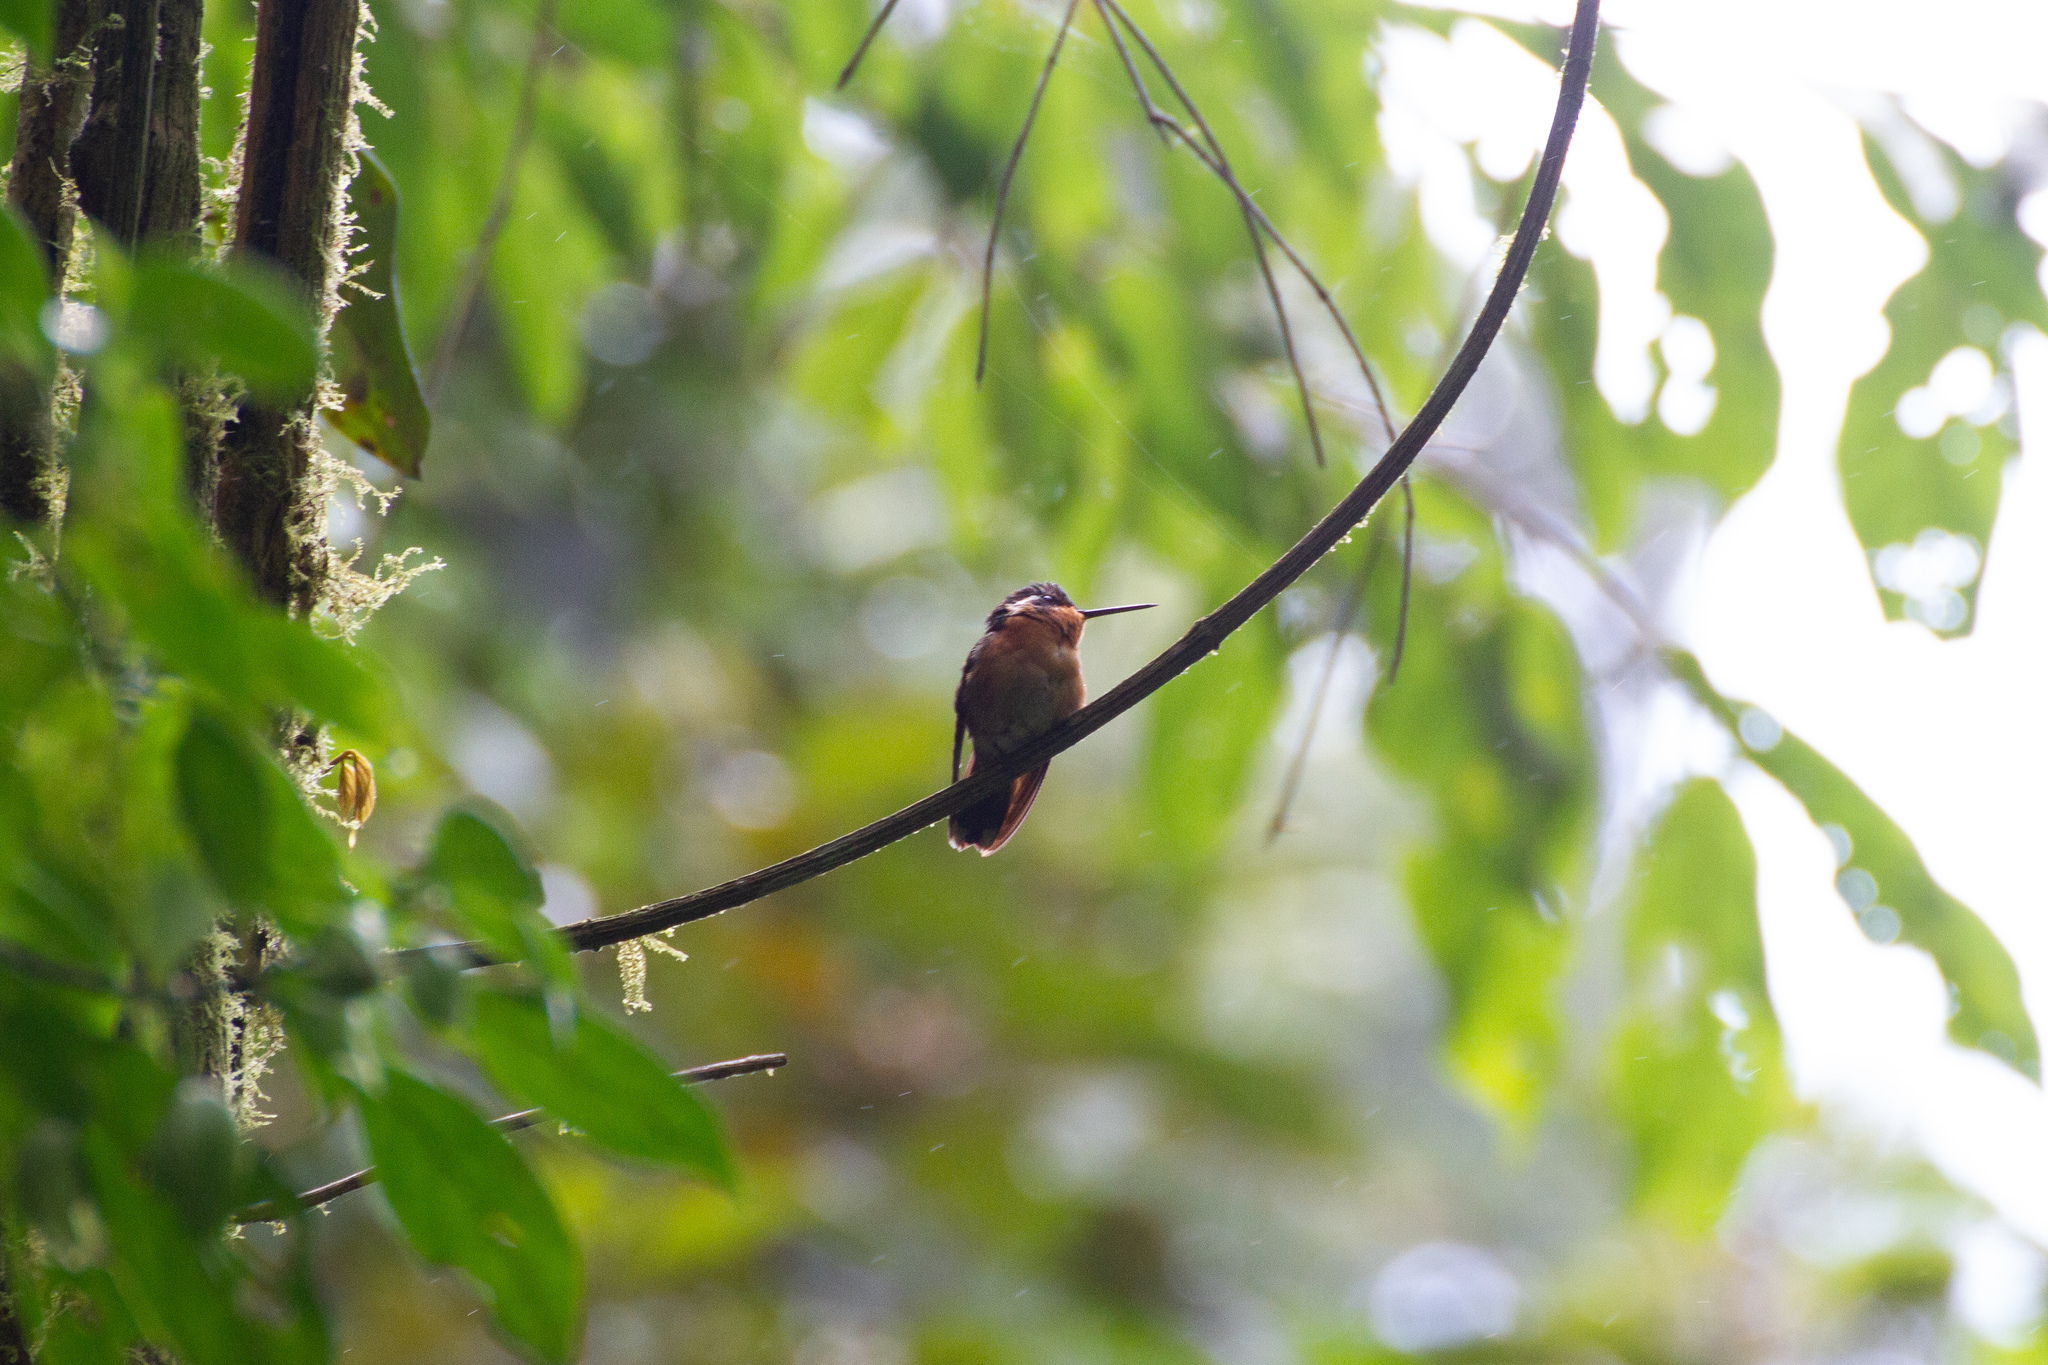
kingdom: Animalia
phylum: Chordata
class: Aves
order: Apodiformes
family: Trochilidae
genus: Lampornis
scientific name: Lampornis calolaemus
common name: Purple-throated mountain-gem
